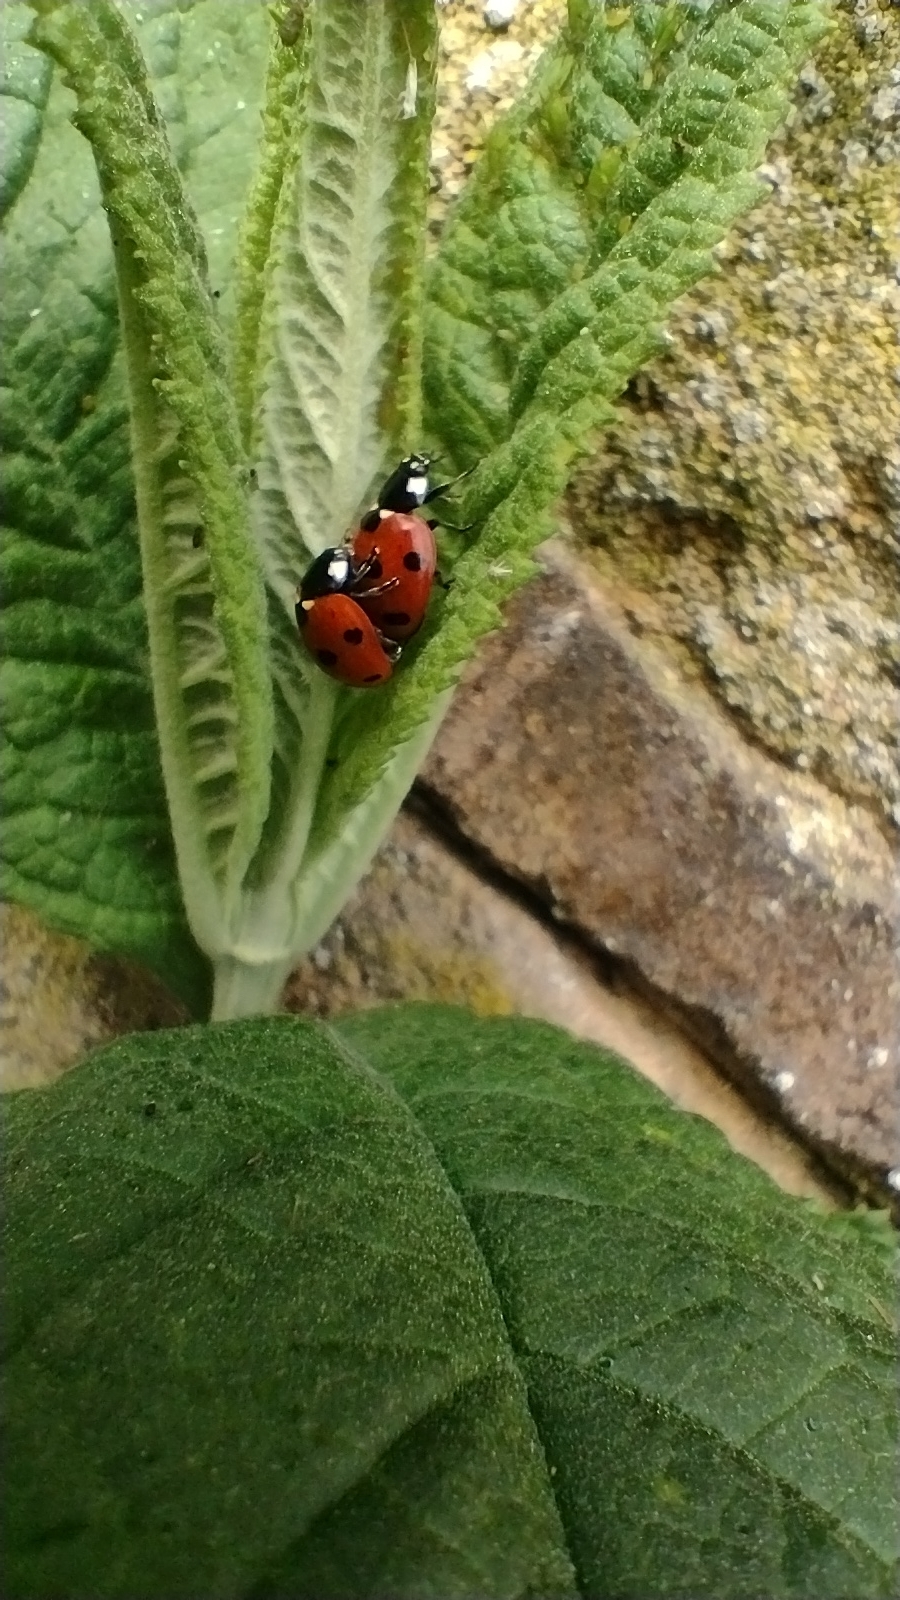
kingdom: Animalia
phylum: Arthropoda
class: Insecta
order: Coleoptera
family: Coccinellidae
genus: Coccinella
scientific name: Coccinella septempunctata
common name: Sevenspotted lady beetle
